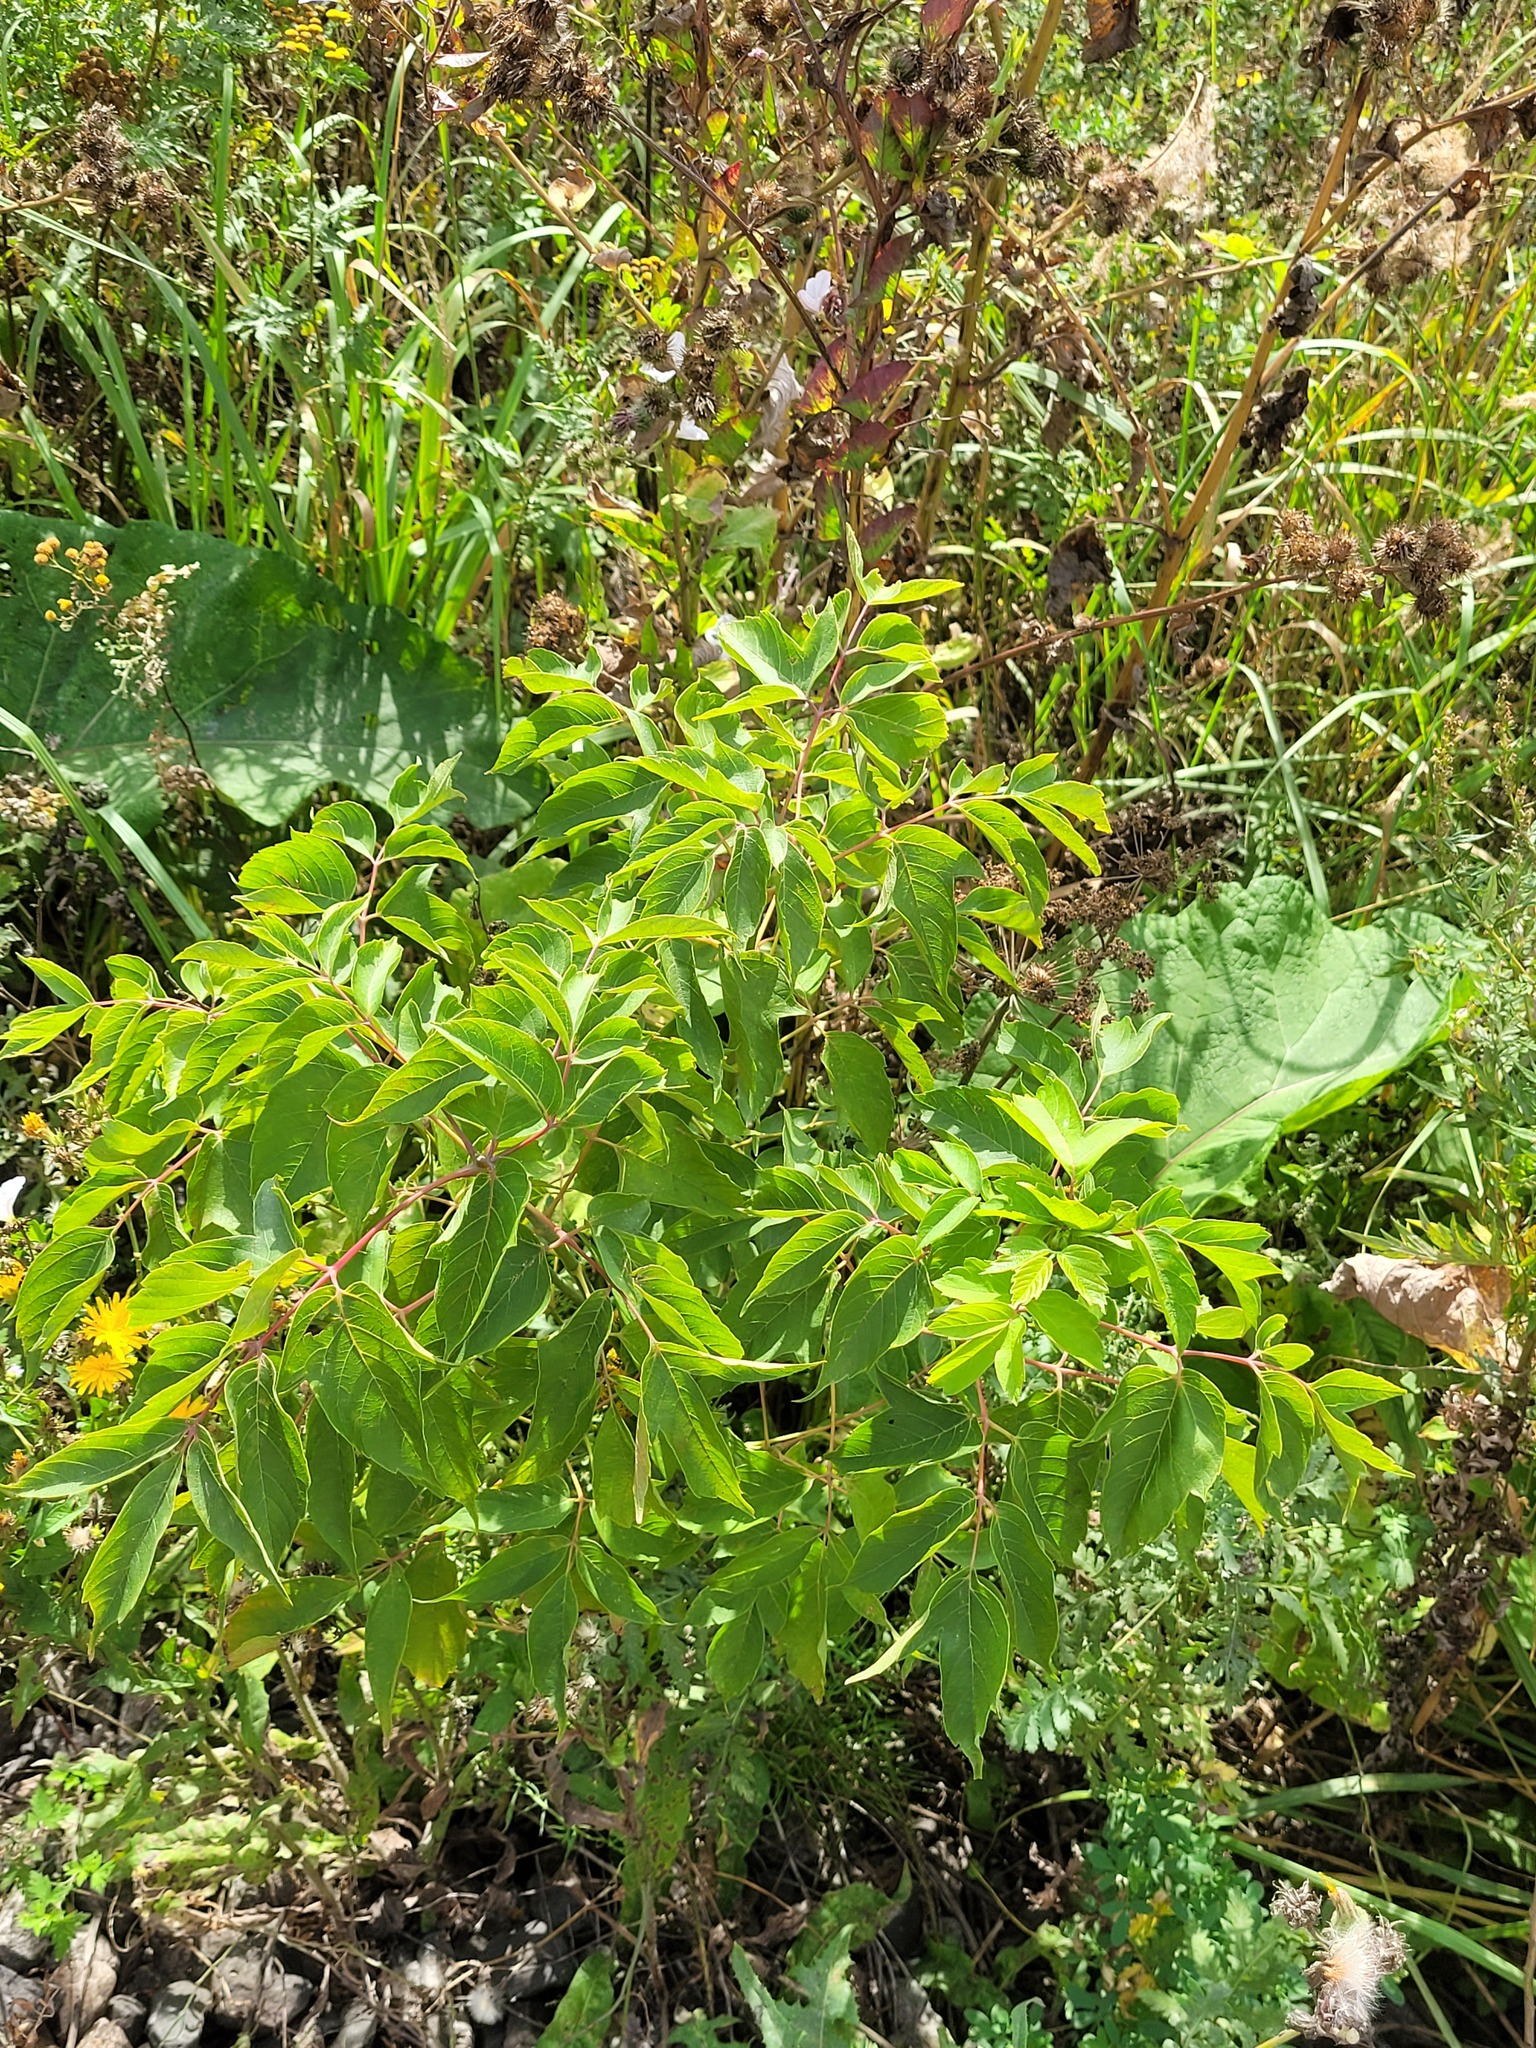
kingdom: Plantae
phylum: Tracheophyta
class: Magnoliopsida
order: Sapindales
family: Sapindaceae
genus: Acer
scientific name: Acer negundo
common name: Ashleaf maple
